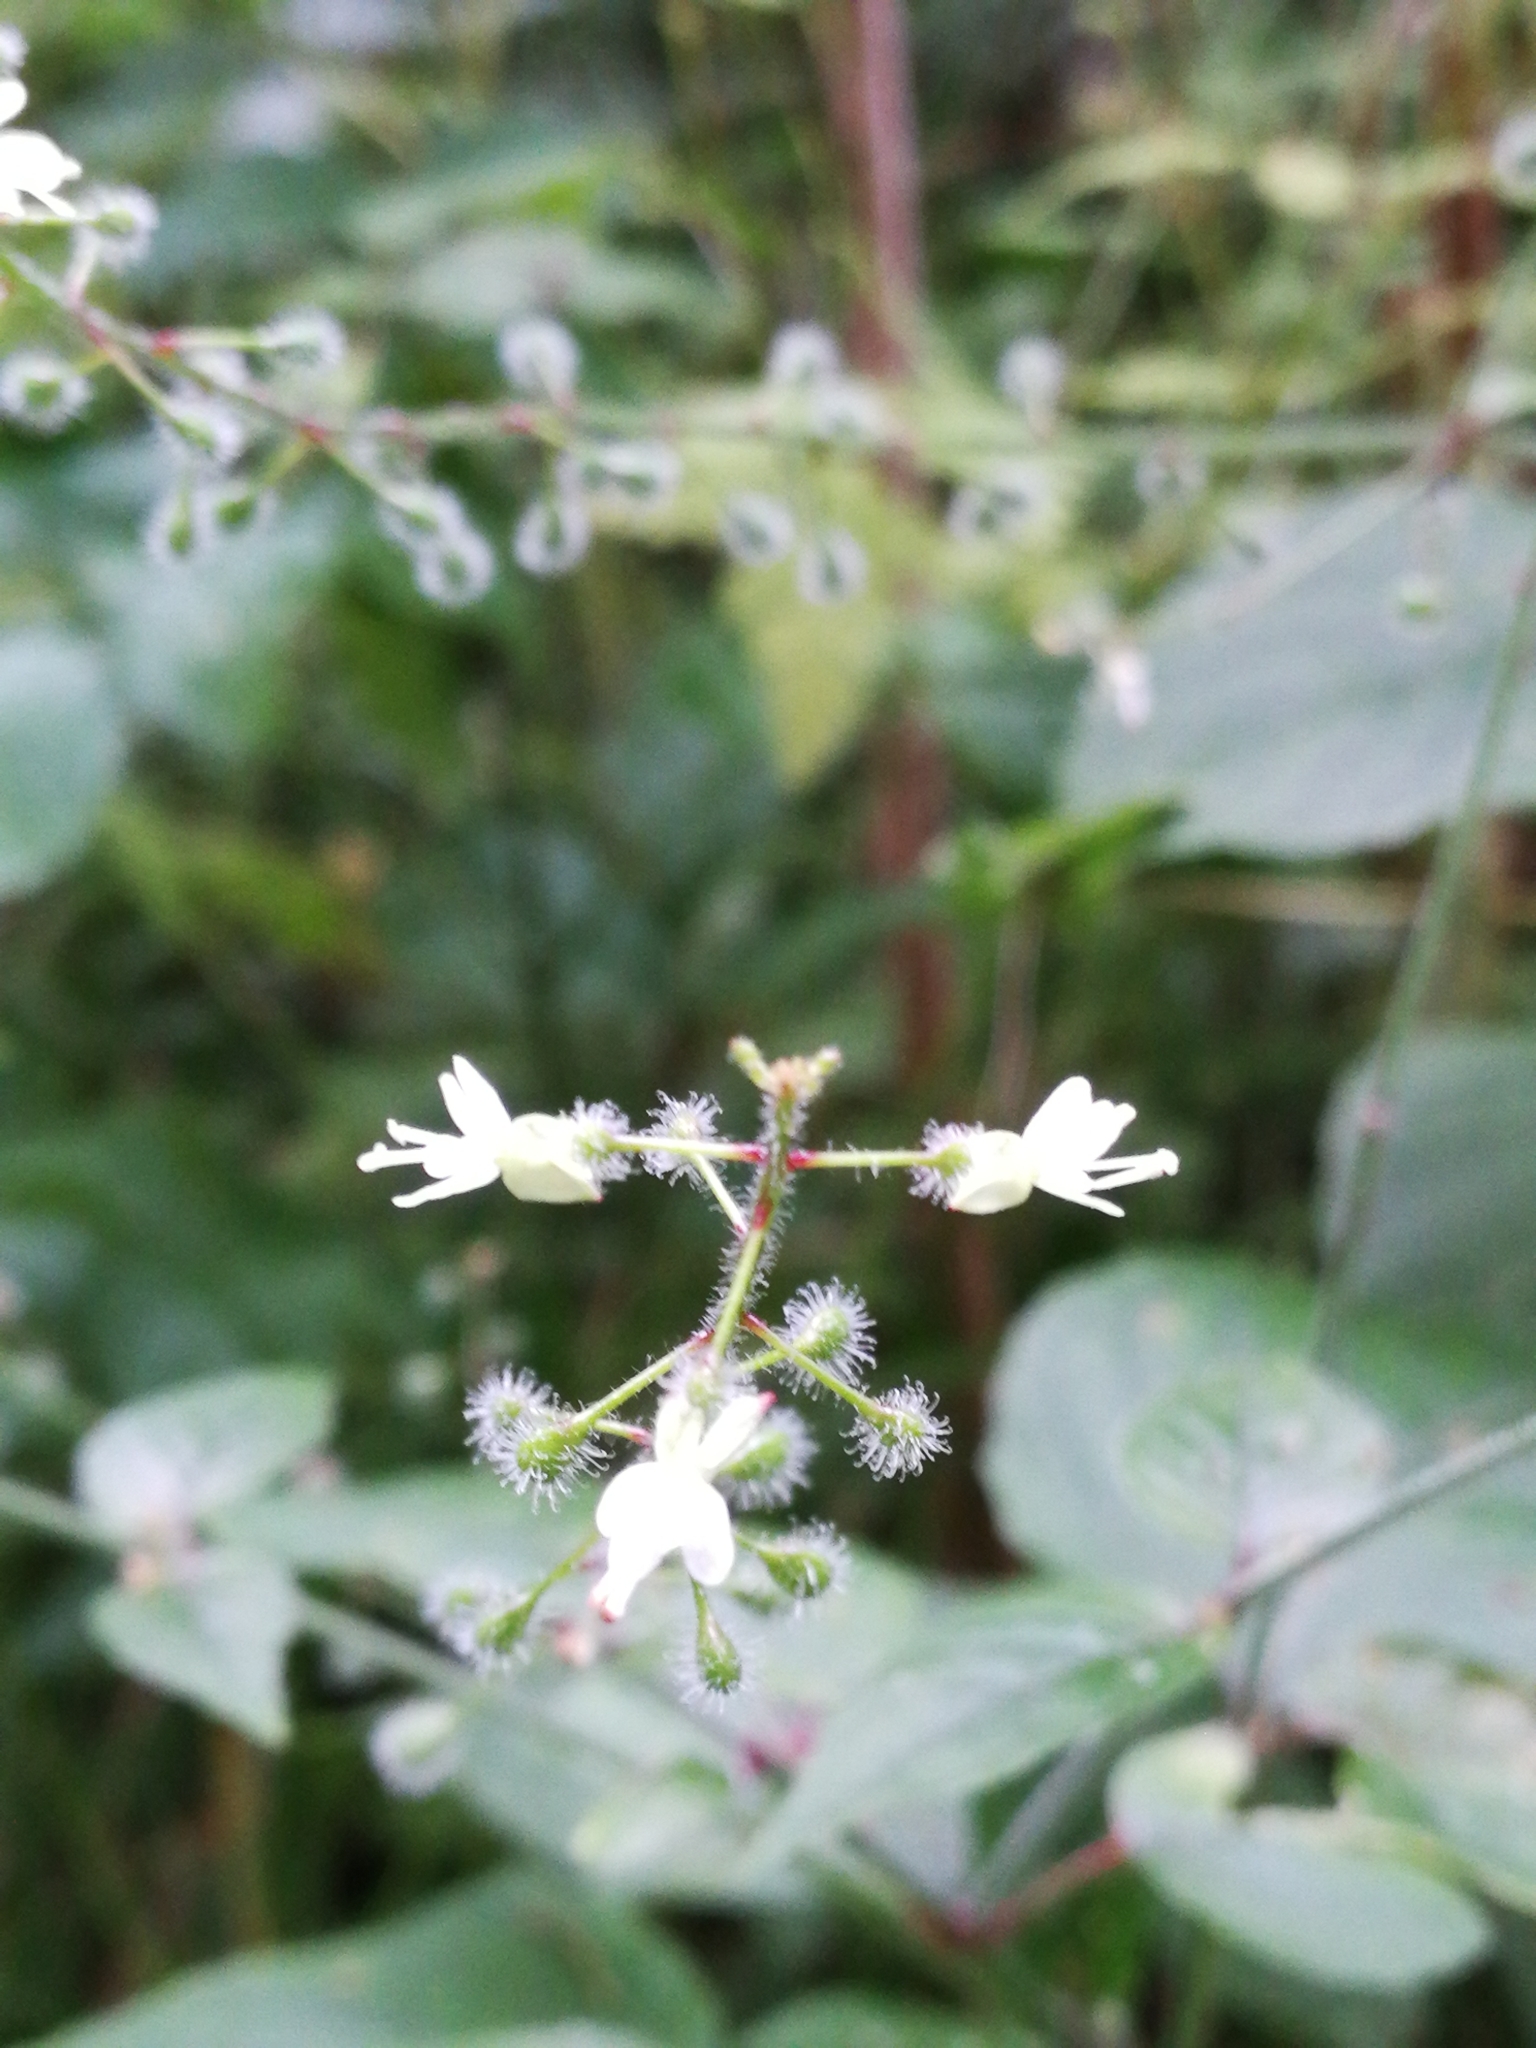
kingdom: Plantae
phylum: Tracheophyta
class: Magnoliopsida
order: Myrtales
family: Onagraceae
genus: Circaea
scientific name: Circaea lutetiana
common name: Enchanter's-nightshade
